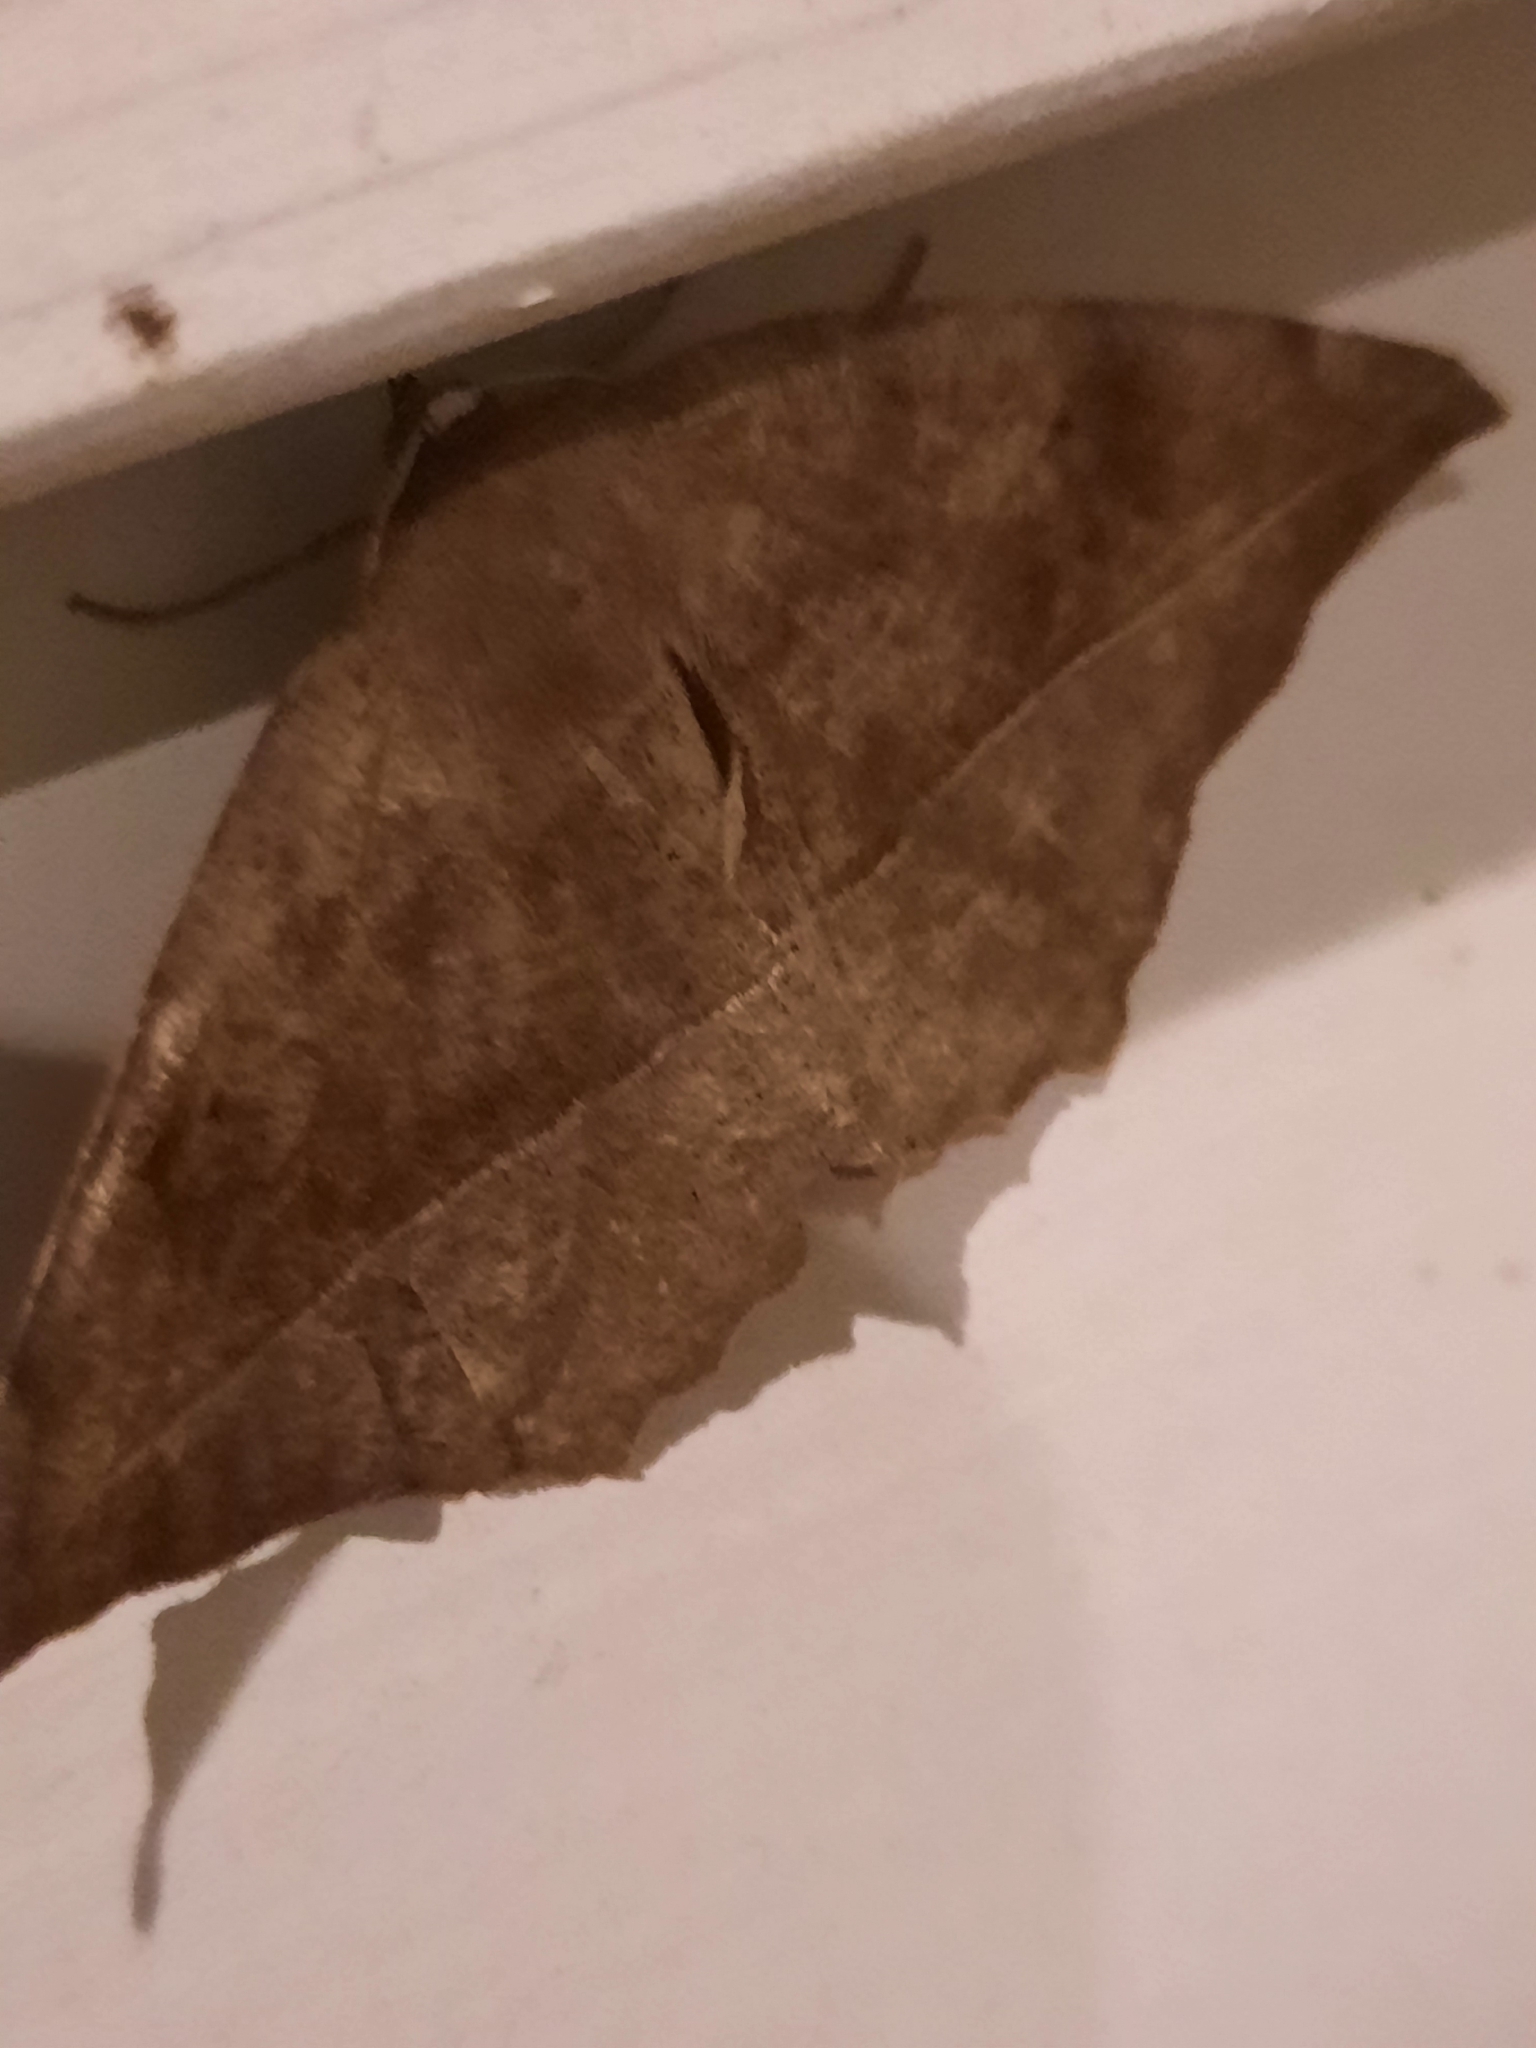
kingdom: Animalia
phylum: Arthropoda
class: Insecta
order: Lepidoptera
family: Geometridae
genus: Eutrapela
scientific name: Eutrapela clemataria
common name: Curved-toothed geometer
